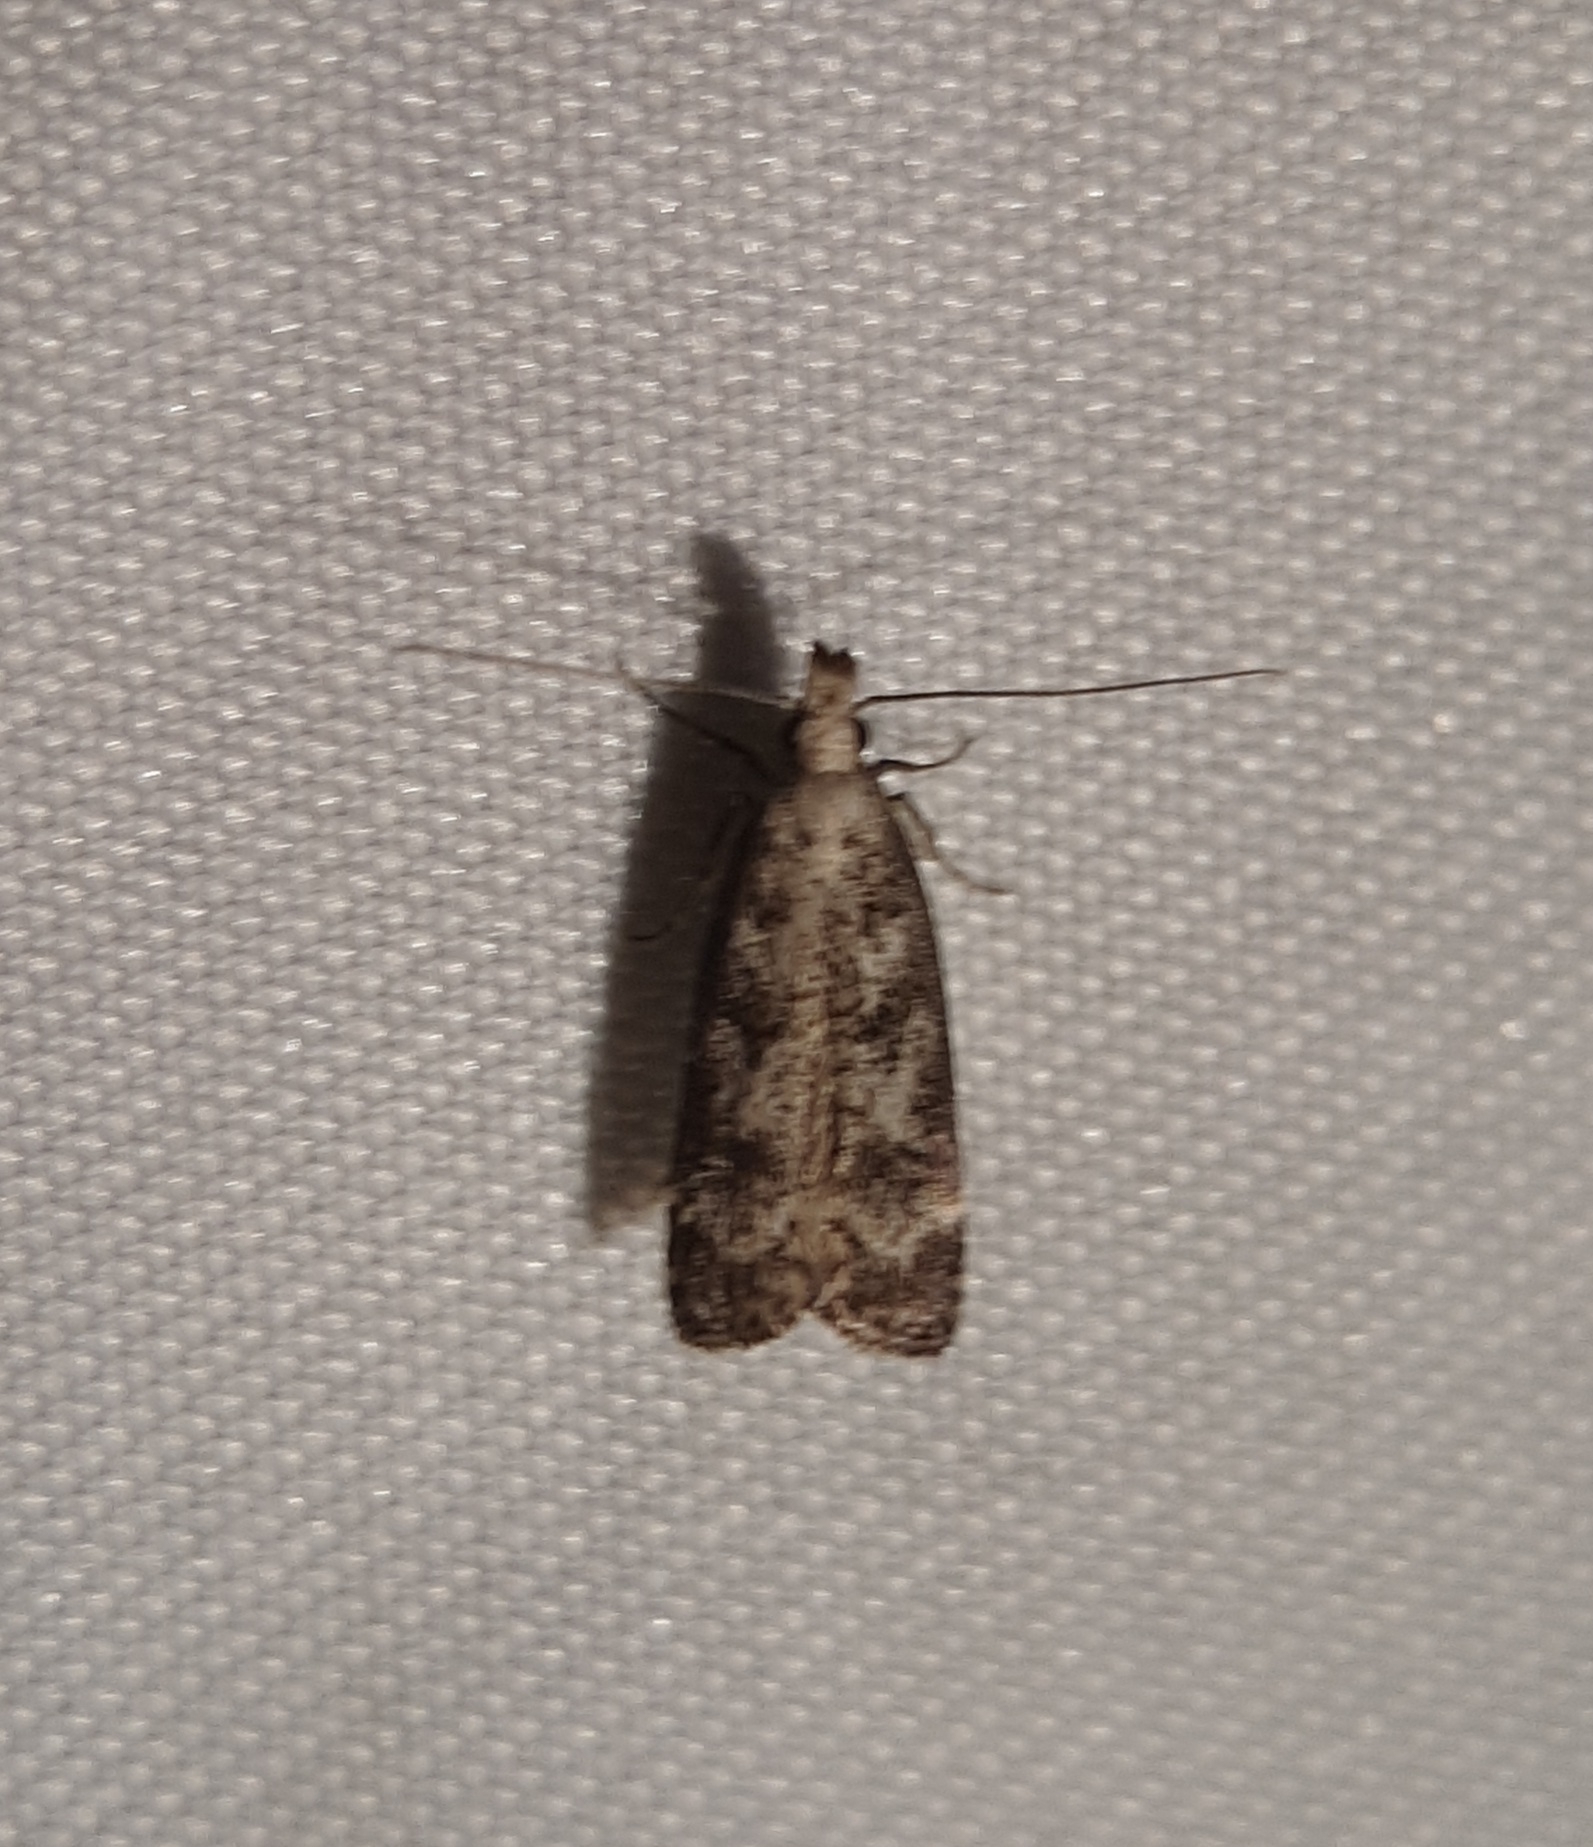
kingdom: Animalia
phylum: Arthropoda
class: Insecta
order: Lepidoptera
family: Gelechiidae
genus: Dichomeris
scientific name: Dichomeris inversella
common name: Inverse dichomeris moth
